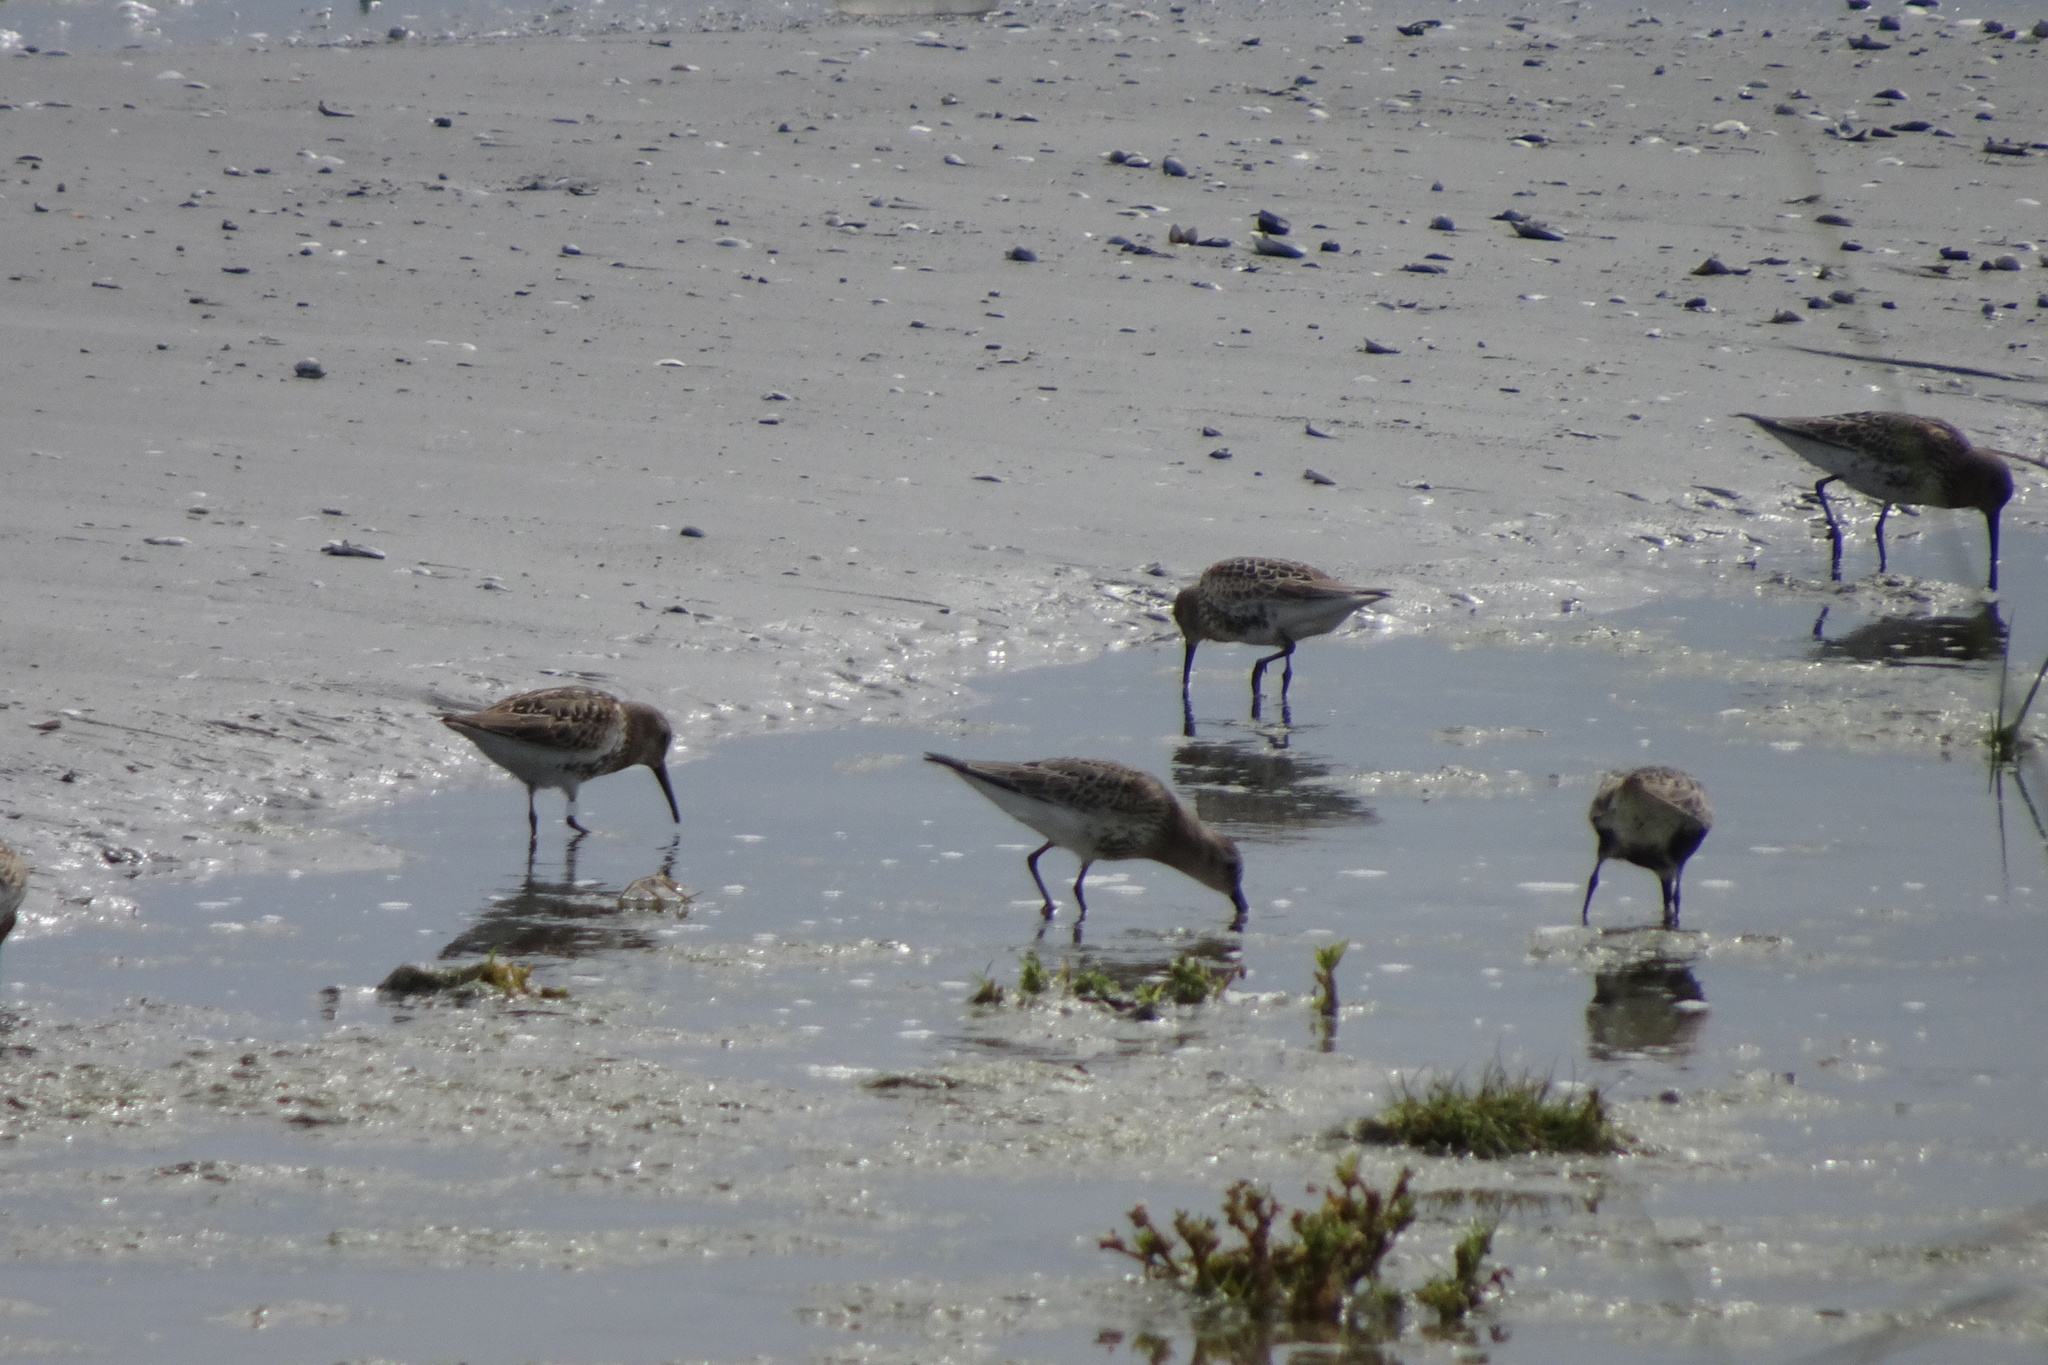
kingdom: Animalia
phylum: Chordata
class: Aves
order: Charadriiformes
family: Scolopacidae
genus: Calidris
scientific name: Calidris alpina
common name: Dunlin
